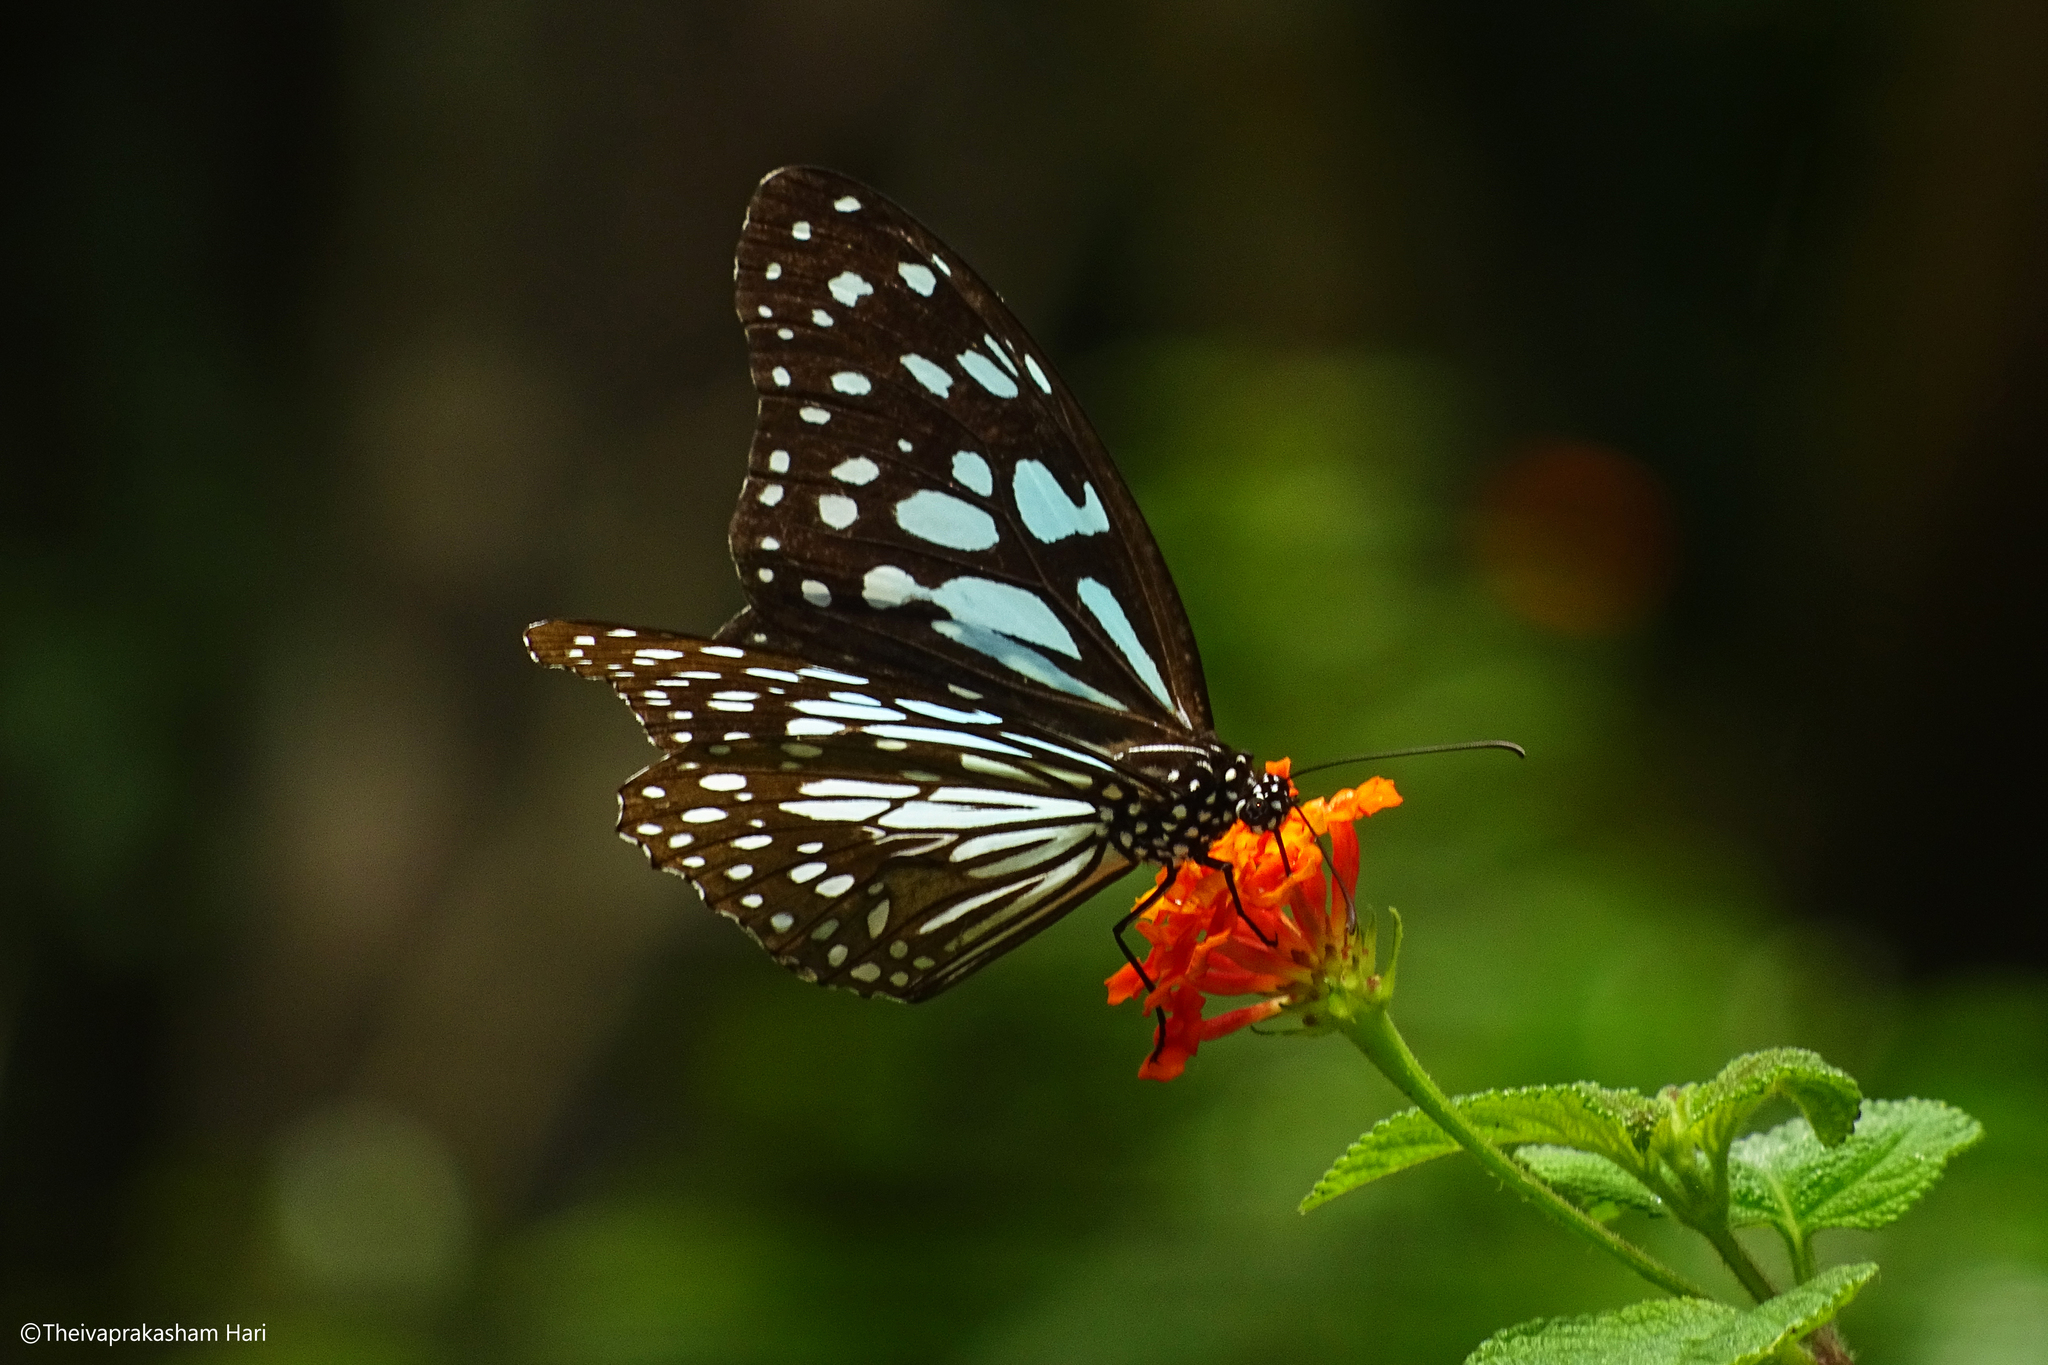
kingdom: Animalia
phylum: Arthropoda
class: Insecta
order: Lepidoptera
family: Nymphalidae
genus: Tirumala
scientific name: Tirumala limniace
